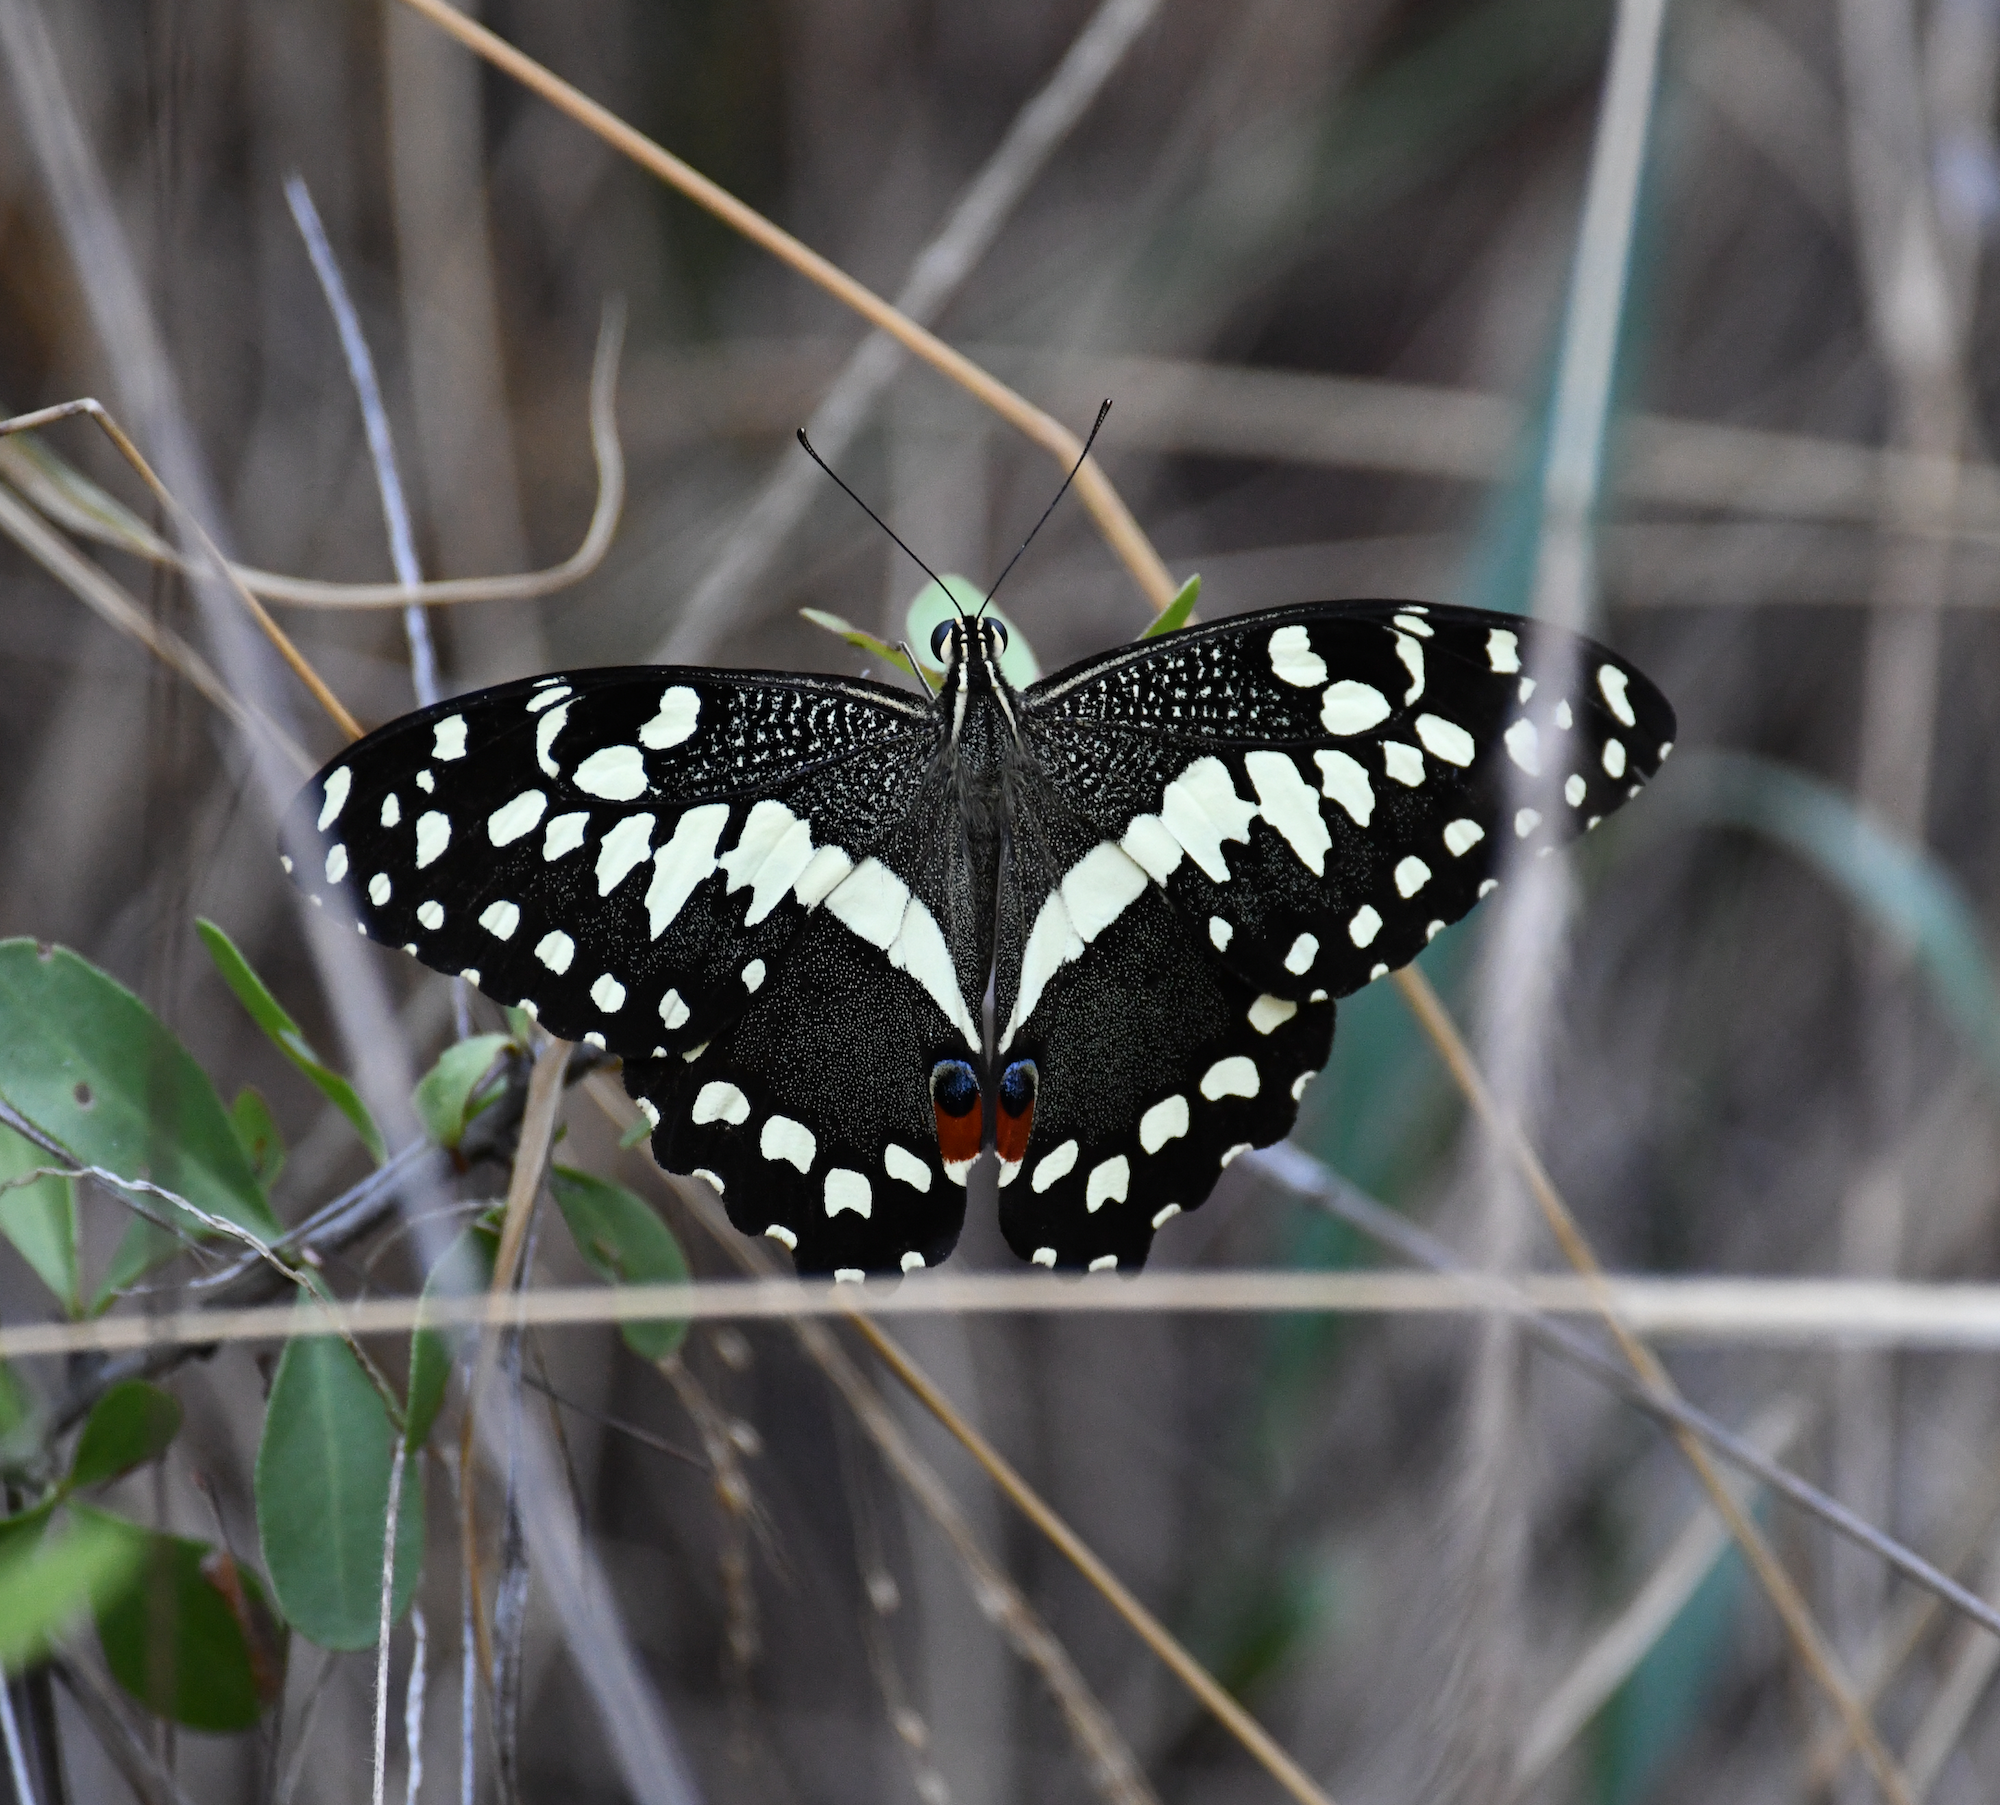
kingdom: Animalia
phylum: Arthropoda
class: Insecta
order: Lepidoptera
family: Papilionidae
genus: Papilio
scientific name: Papilio demodocus
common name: Christmas butterfly
